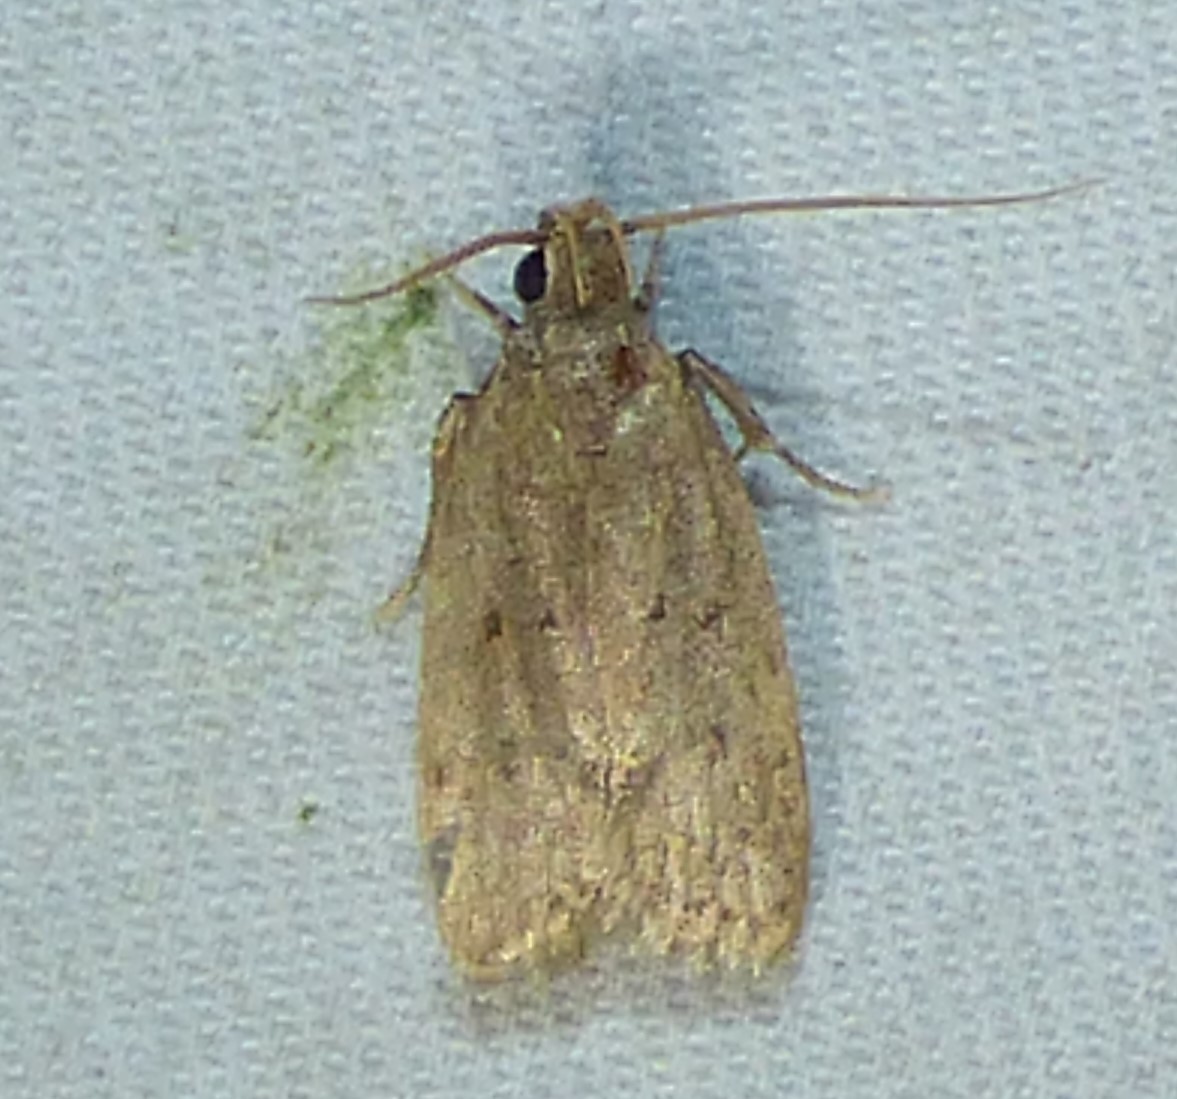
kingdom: Animalia
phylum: Arthropoda
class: Insecta
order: Lepidoptera
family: Autostichidae
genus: Autosticha
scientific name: Autosticha kyotensis
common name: Kyoto moth
